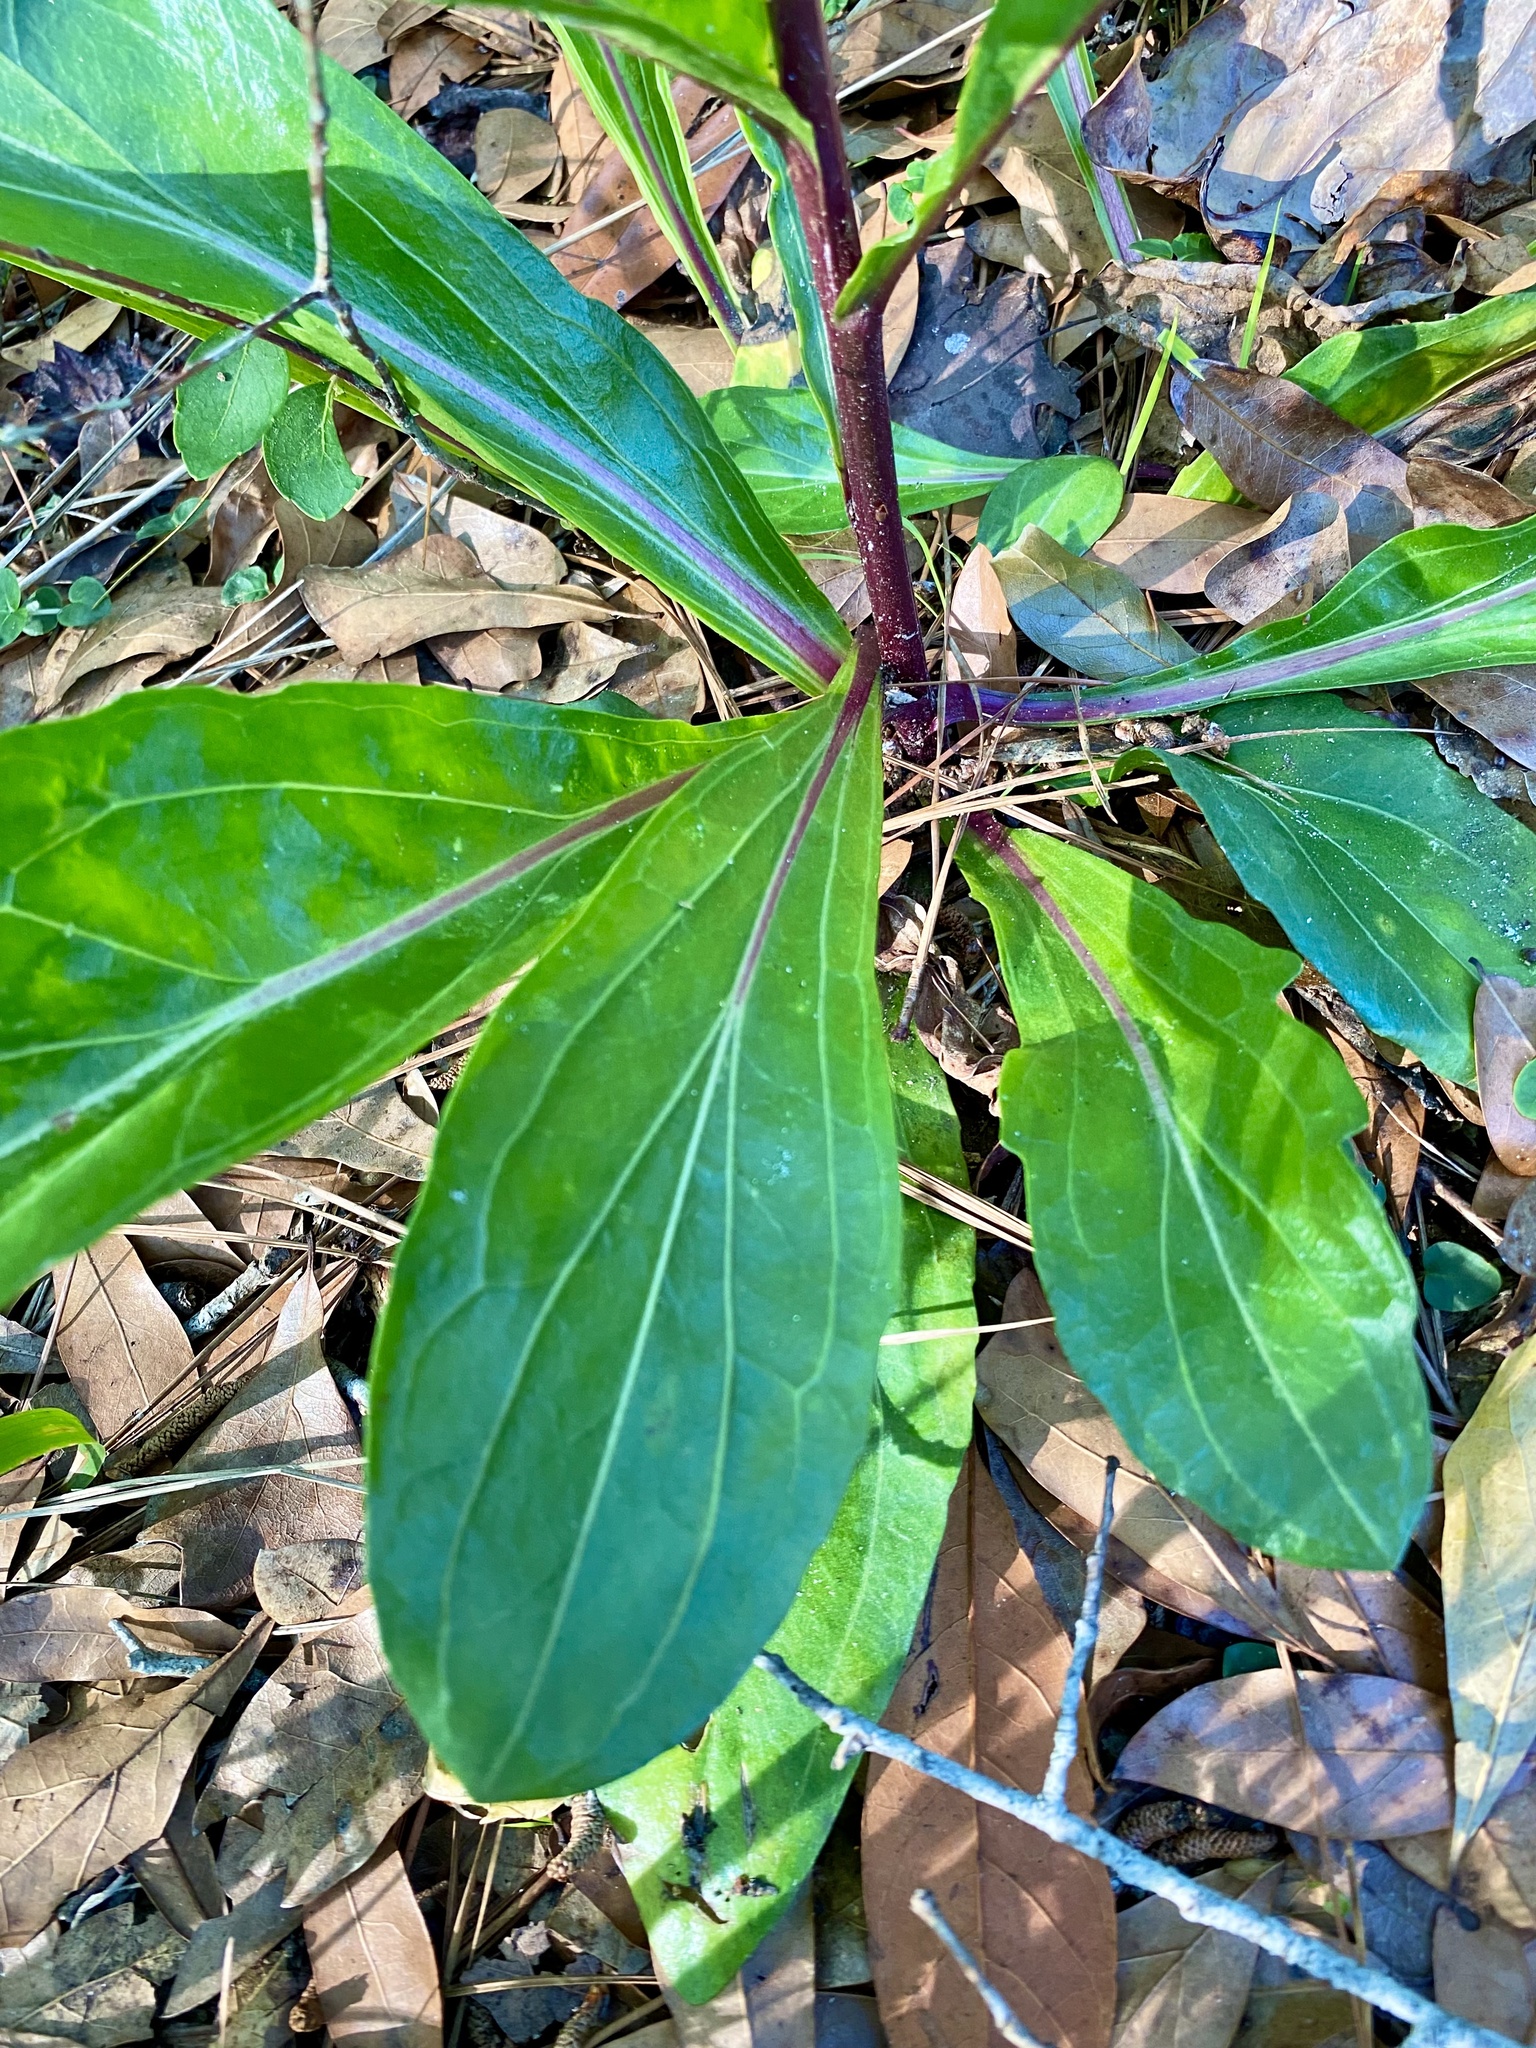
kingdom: Plantae
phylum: Tracheophyta
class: Magnoliopsida
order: Asterales
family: Asteraceae
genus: Carphephorus
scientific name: Carphephorus odoratissimus
